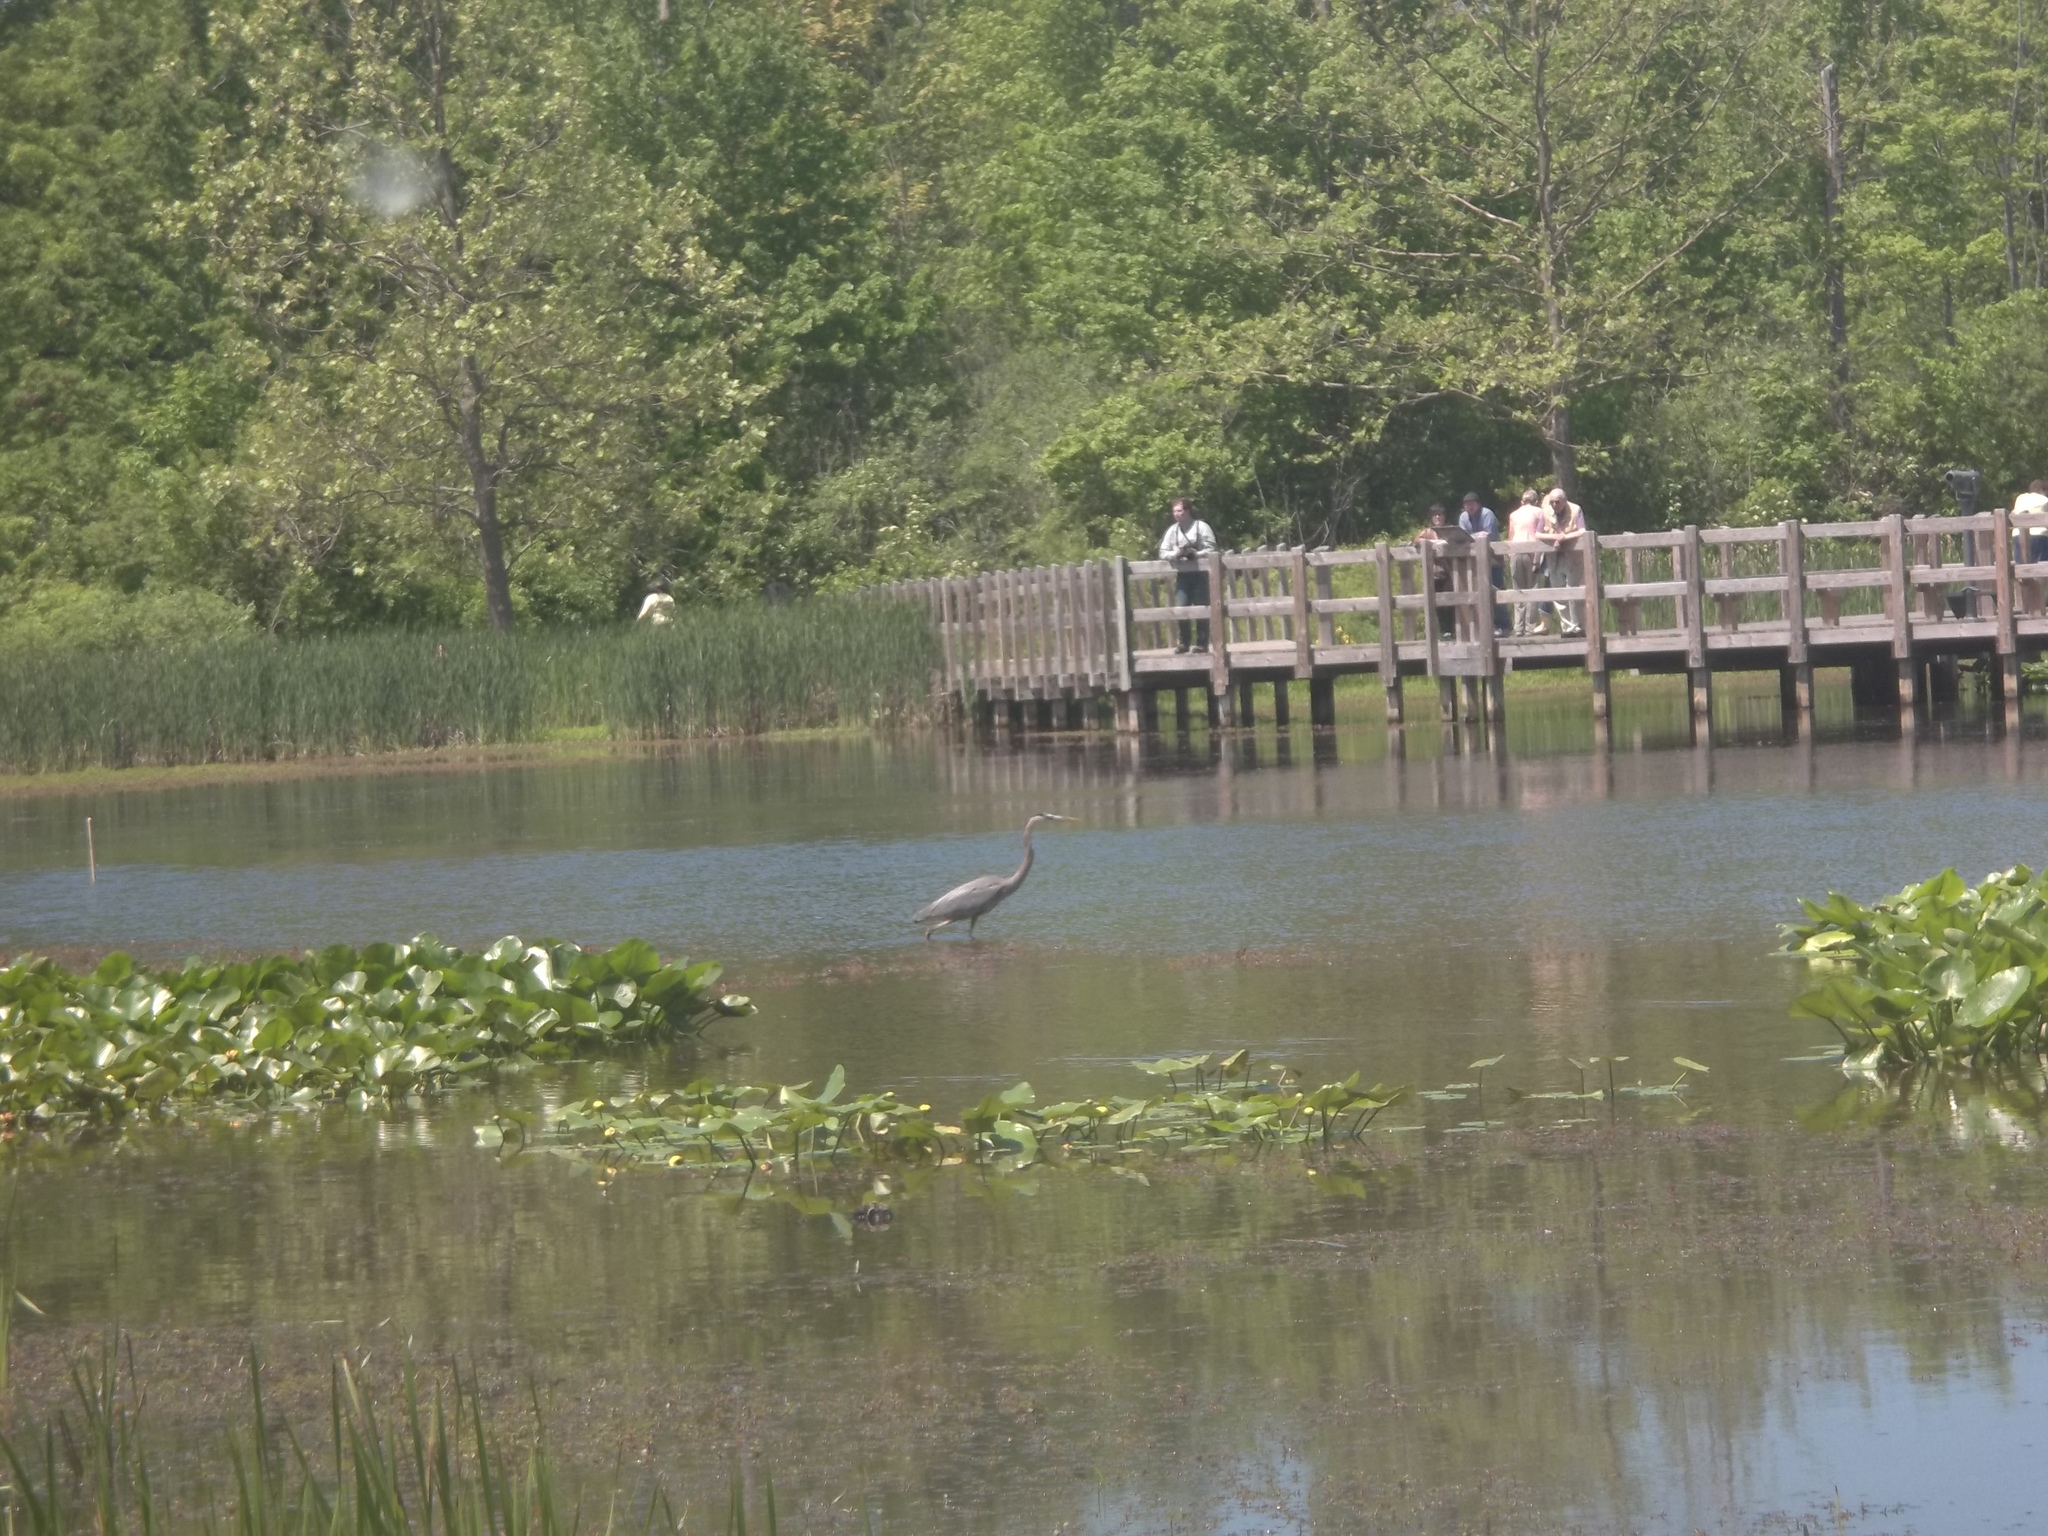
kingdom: Animalia
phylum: Chordata
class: Aves
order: Pelecaniformes
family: Ardeidae
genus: Ardea
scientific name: Ardea herodias
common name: Great blue heron
